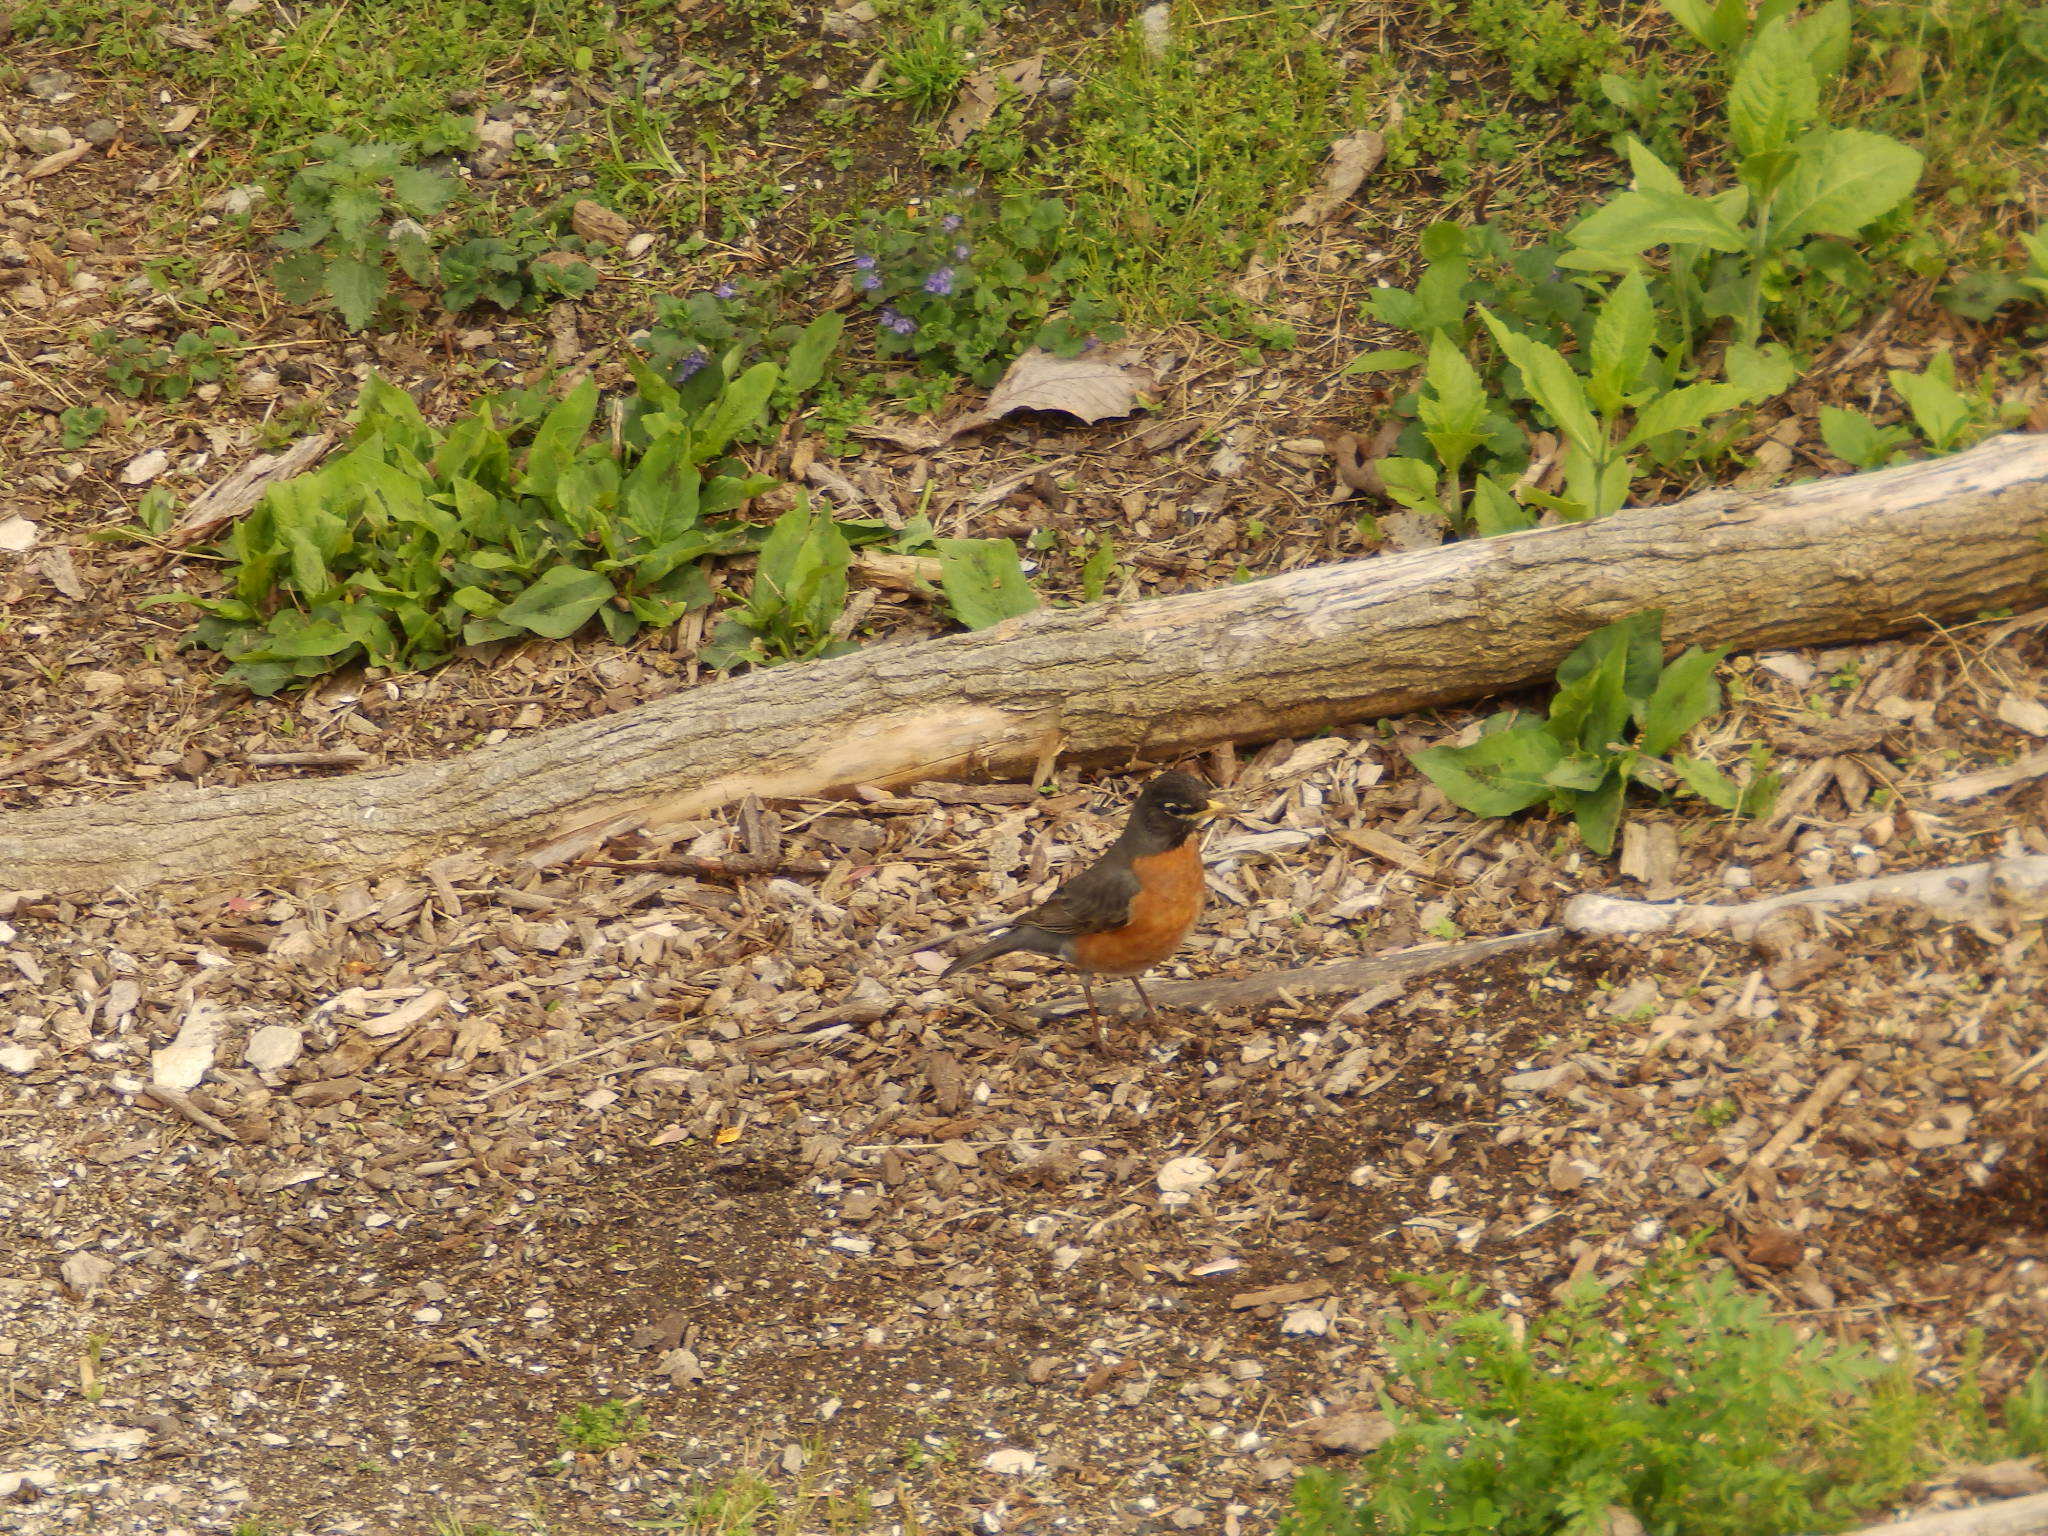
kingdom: Animalia
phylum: Chordata
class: Aves
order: Passeriformes
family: Turdidae
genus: Turdus
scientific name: Turdus migratorius
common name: American robin
